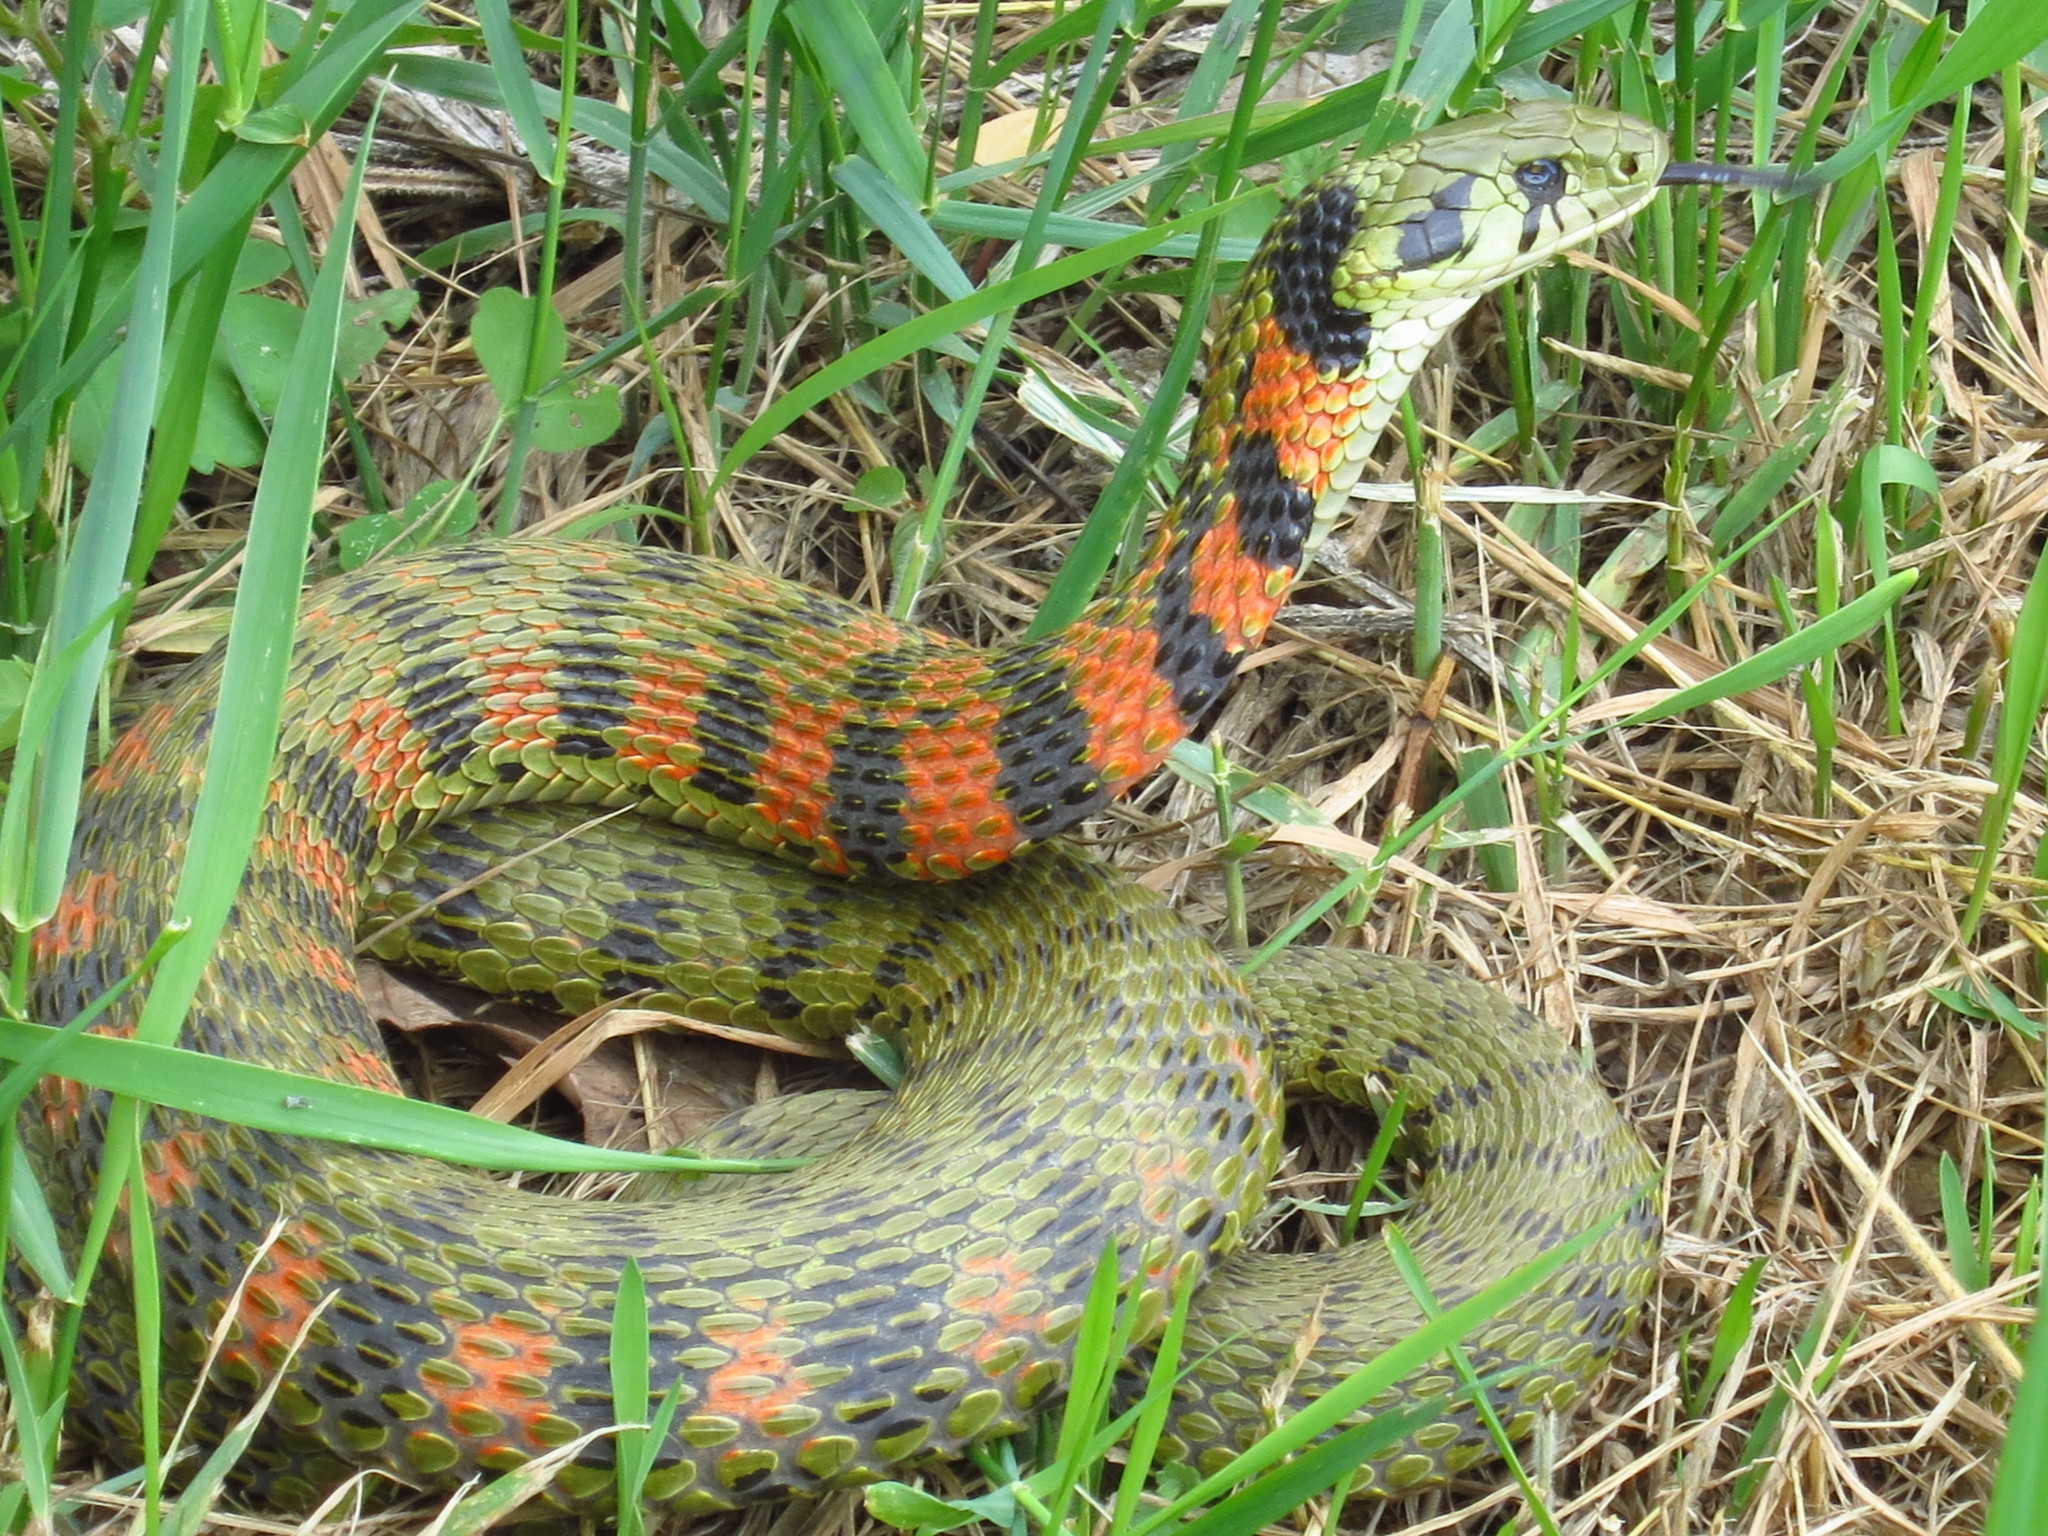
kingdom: Animalia
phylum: Chordata
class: Squamata
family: Colubridae
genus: Rhabdophis
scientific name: Rhabdophis tigrinus
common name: Tiger keelback
